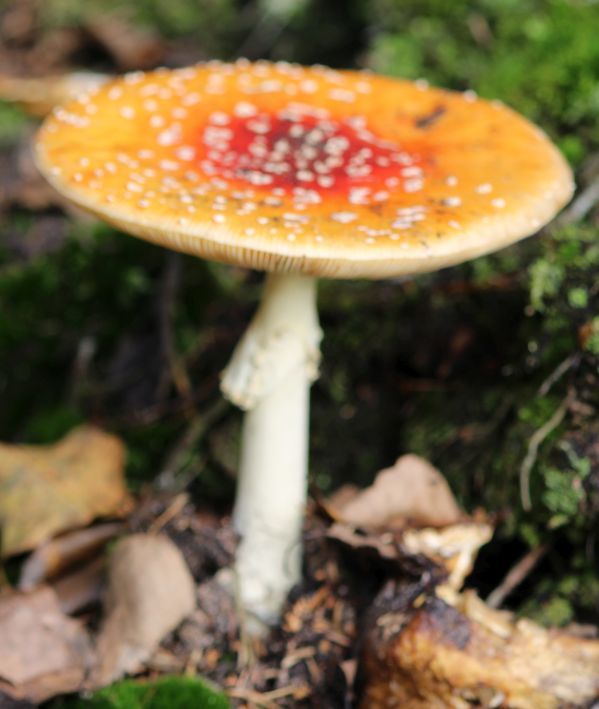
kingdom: Fungi
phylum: Basidiomycota
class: Agaricomycetes
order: Agaricales
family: Amanitaceae
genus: Amanita
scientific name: Amanita muscaria
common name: Fly agaric
